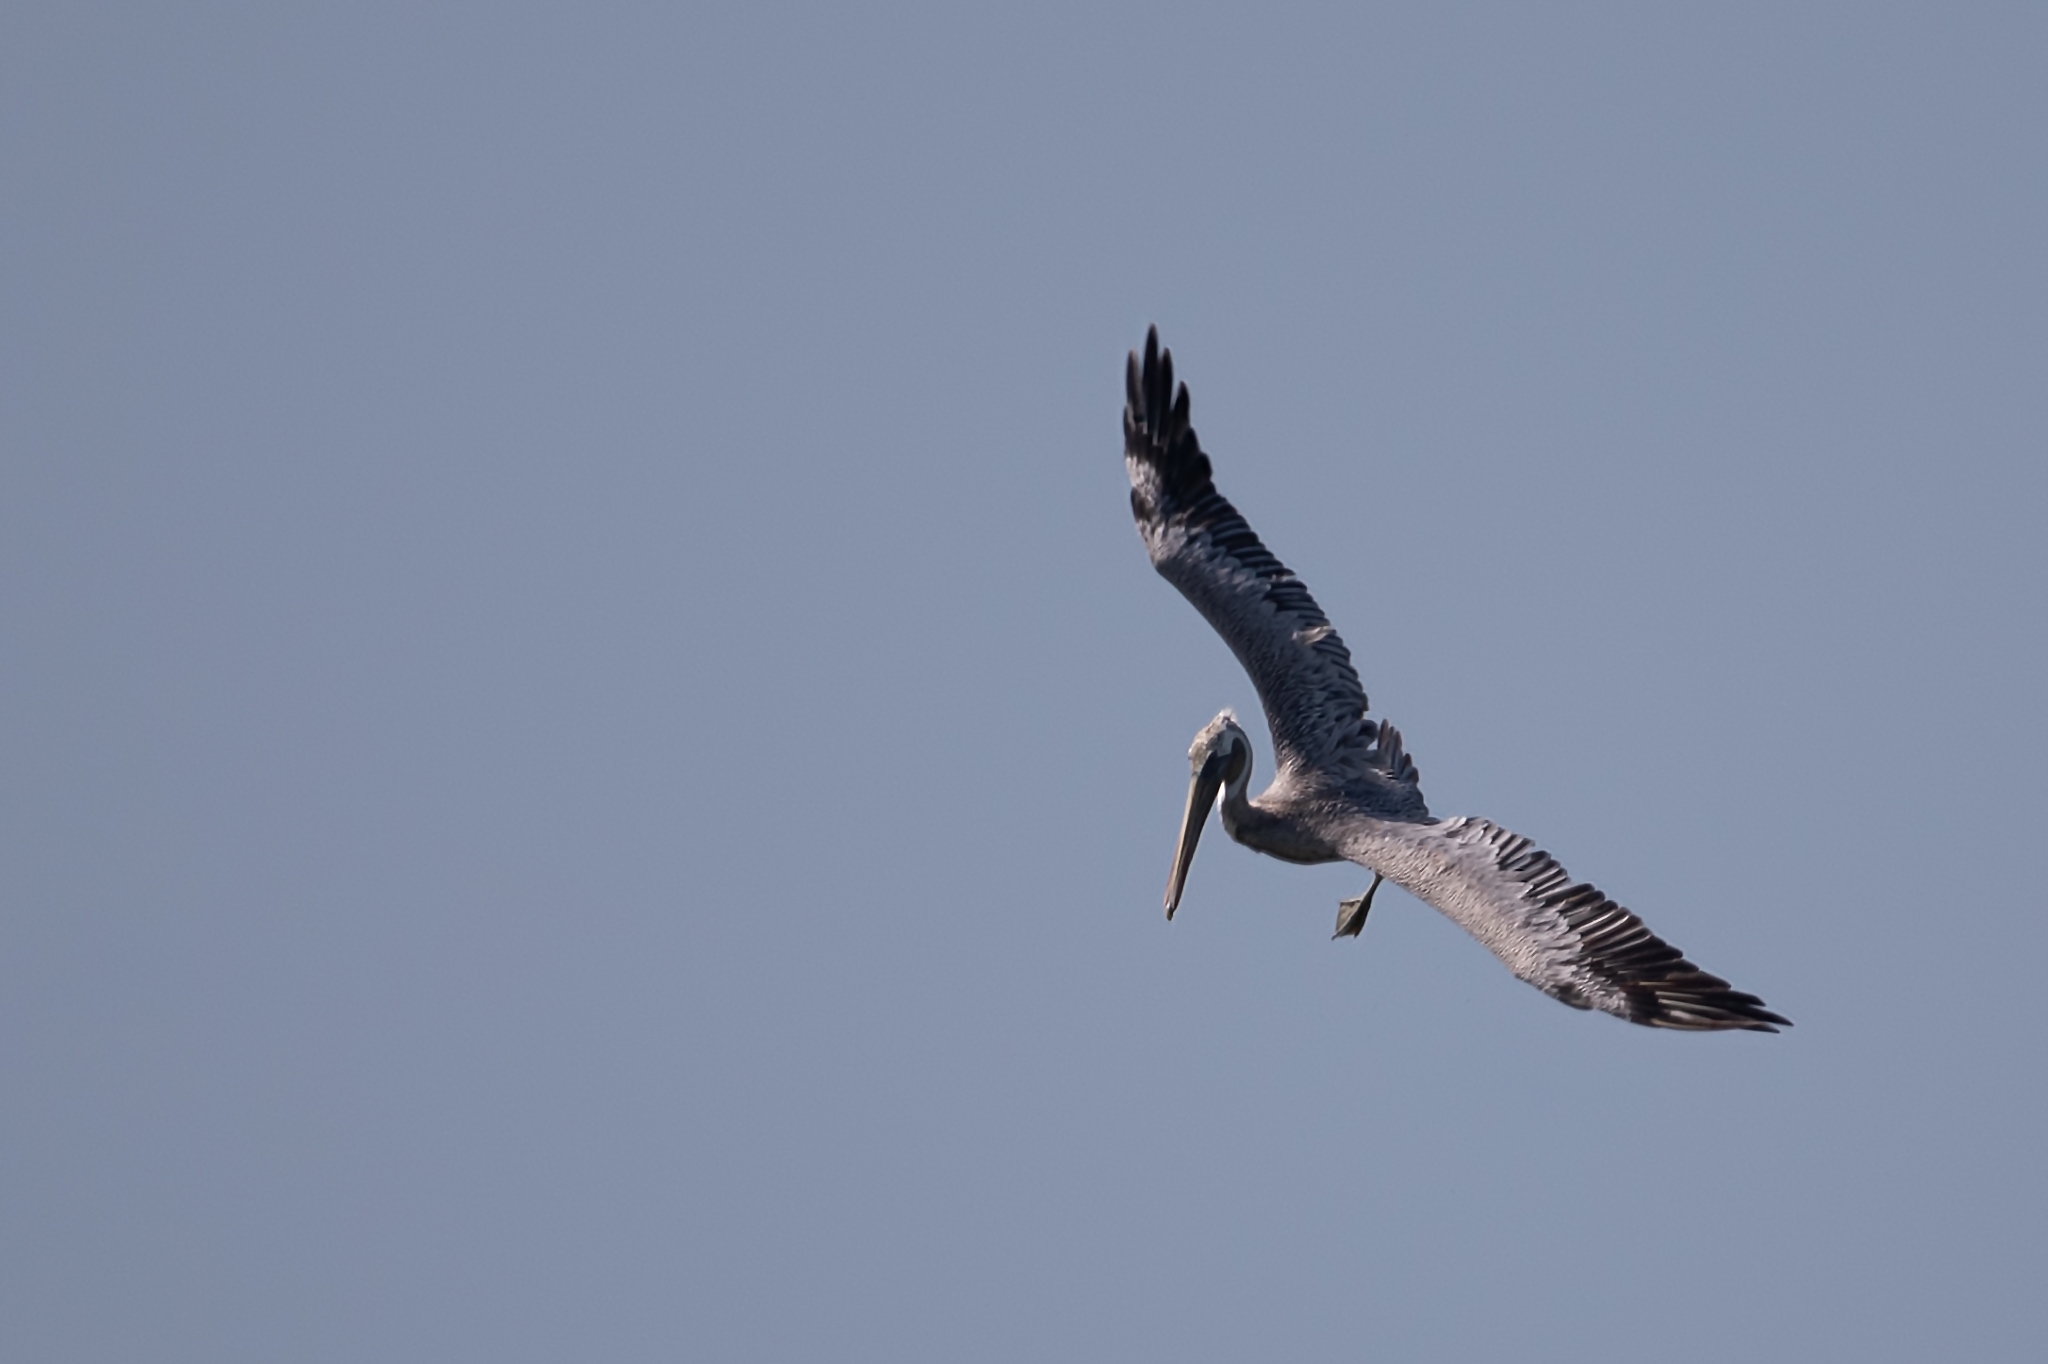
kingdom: Animalia
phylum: Chordata
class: Aves
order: Pelecaniformes
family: Pelecanidae
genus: Pelecanus
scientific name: Pelecanus occidentalis
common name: Brown pelican
